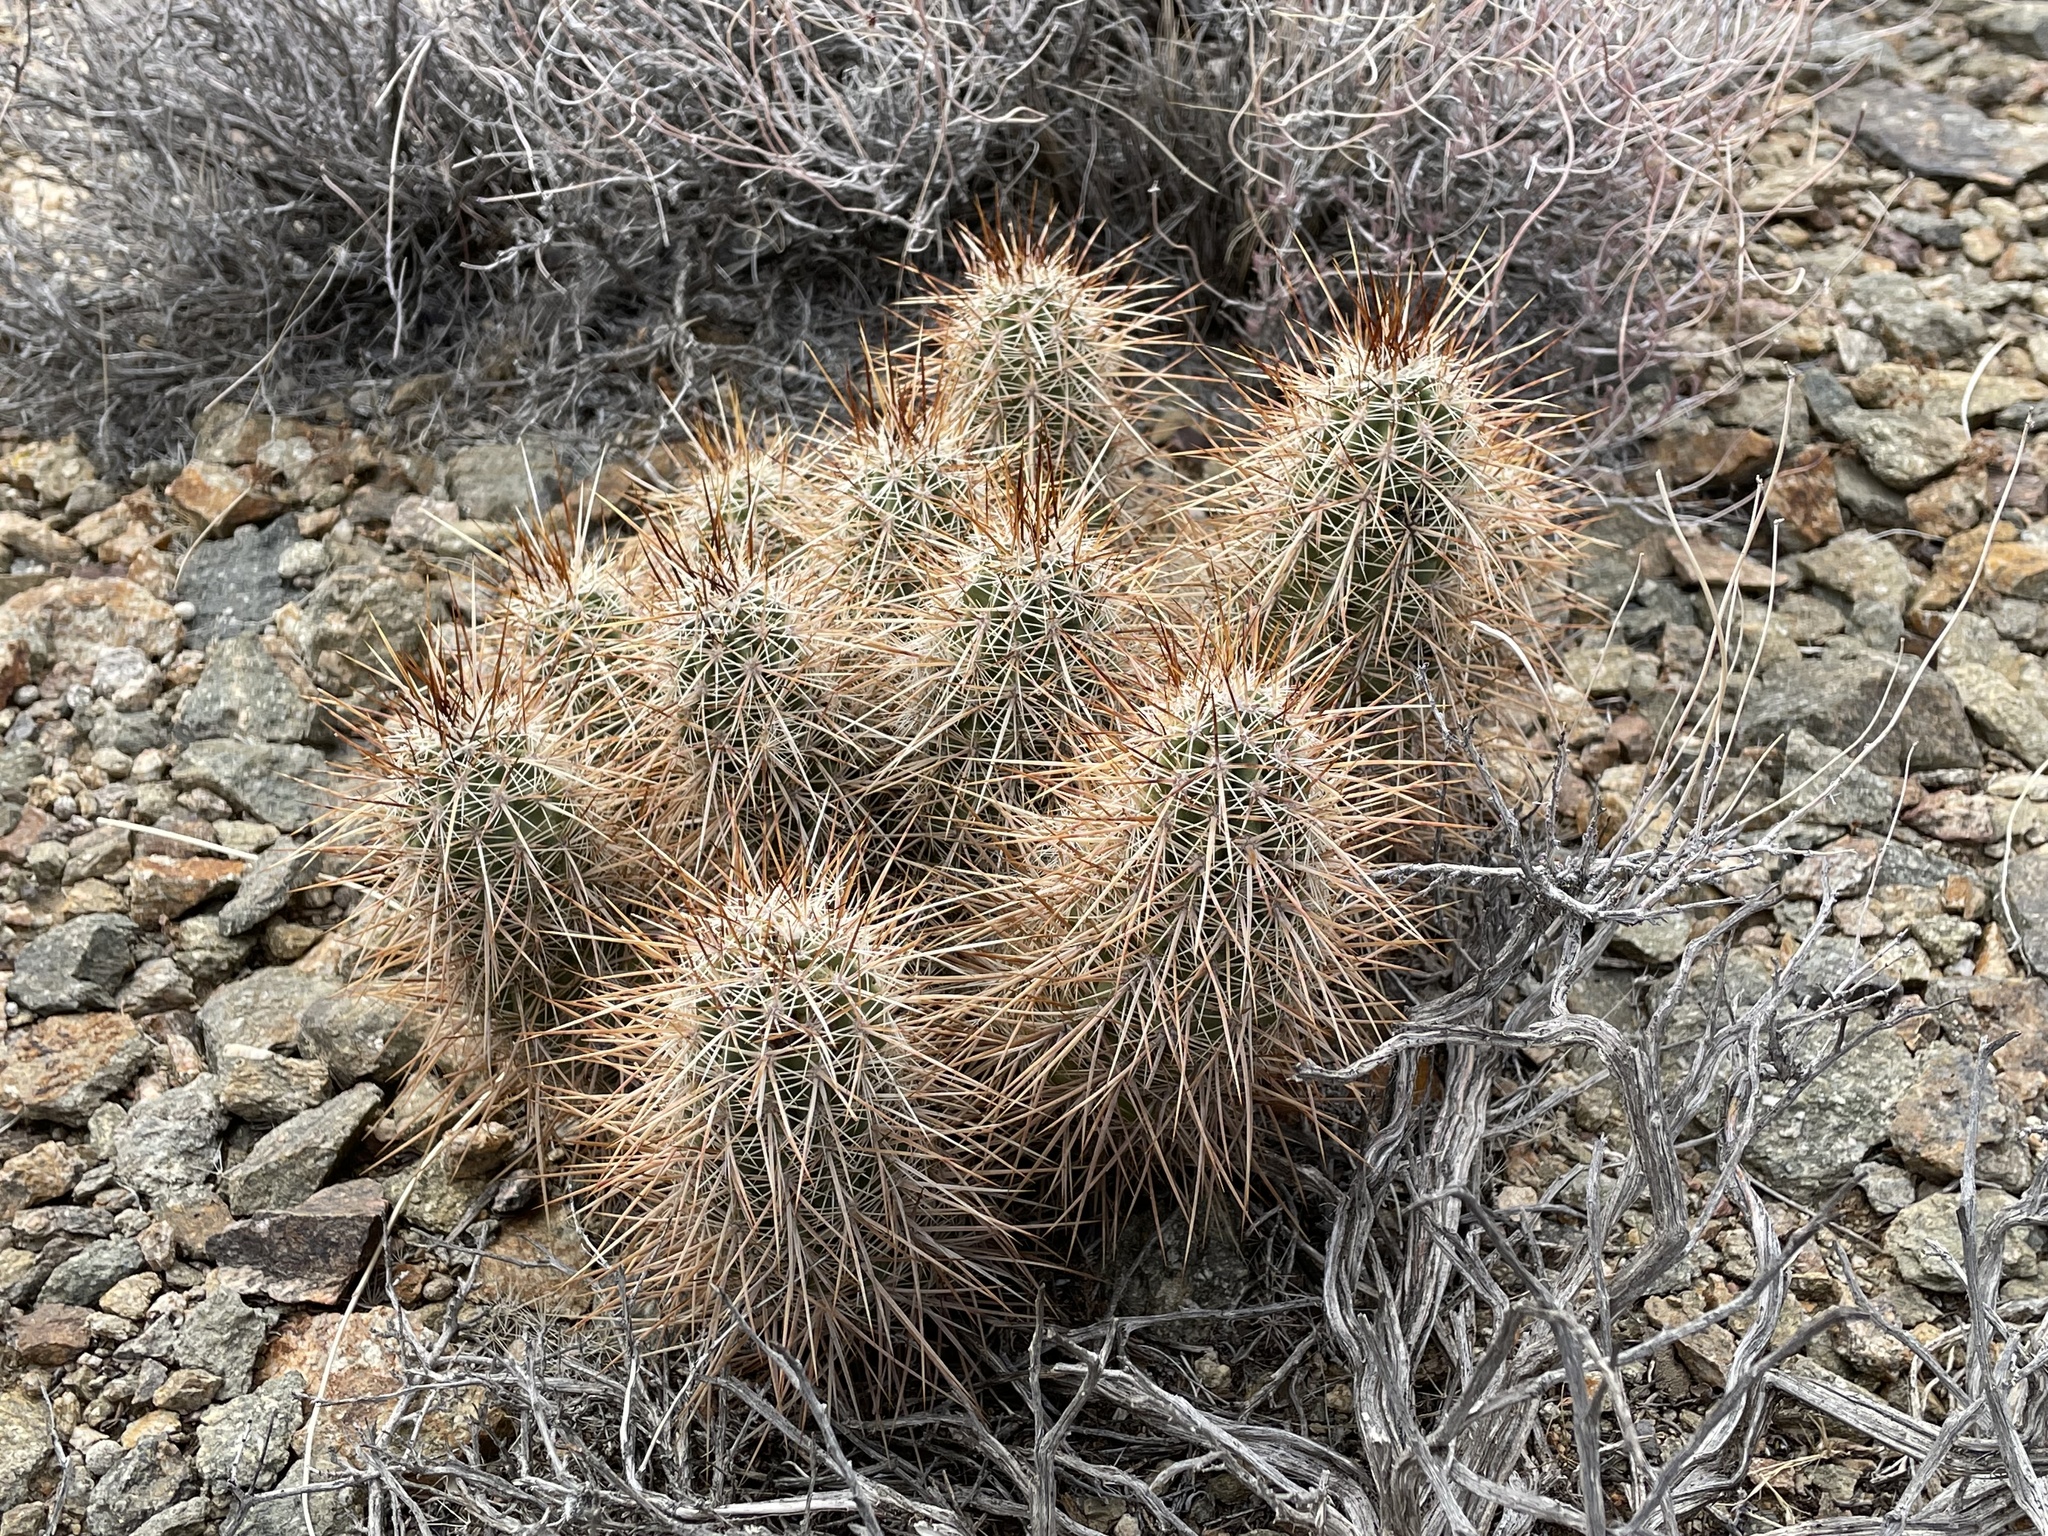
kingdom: Plantae
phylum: Tracheophyta
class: Magnoliopsida
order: Caryophyllales
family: Cactaceae
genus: Echinocereus
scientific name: Echinocereus engelmannii
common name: Engelmann's hedgehog cactus
